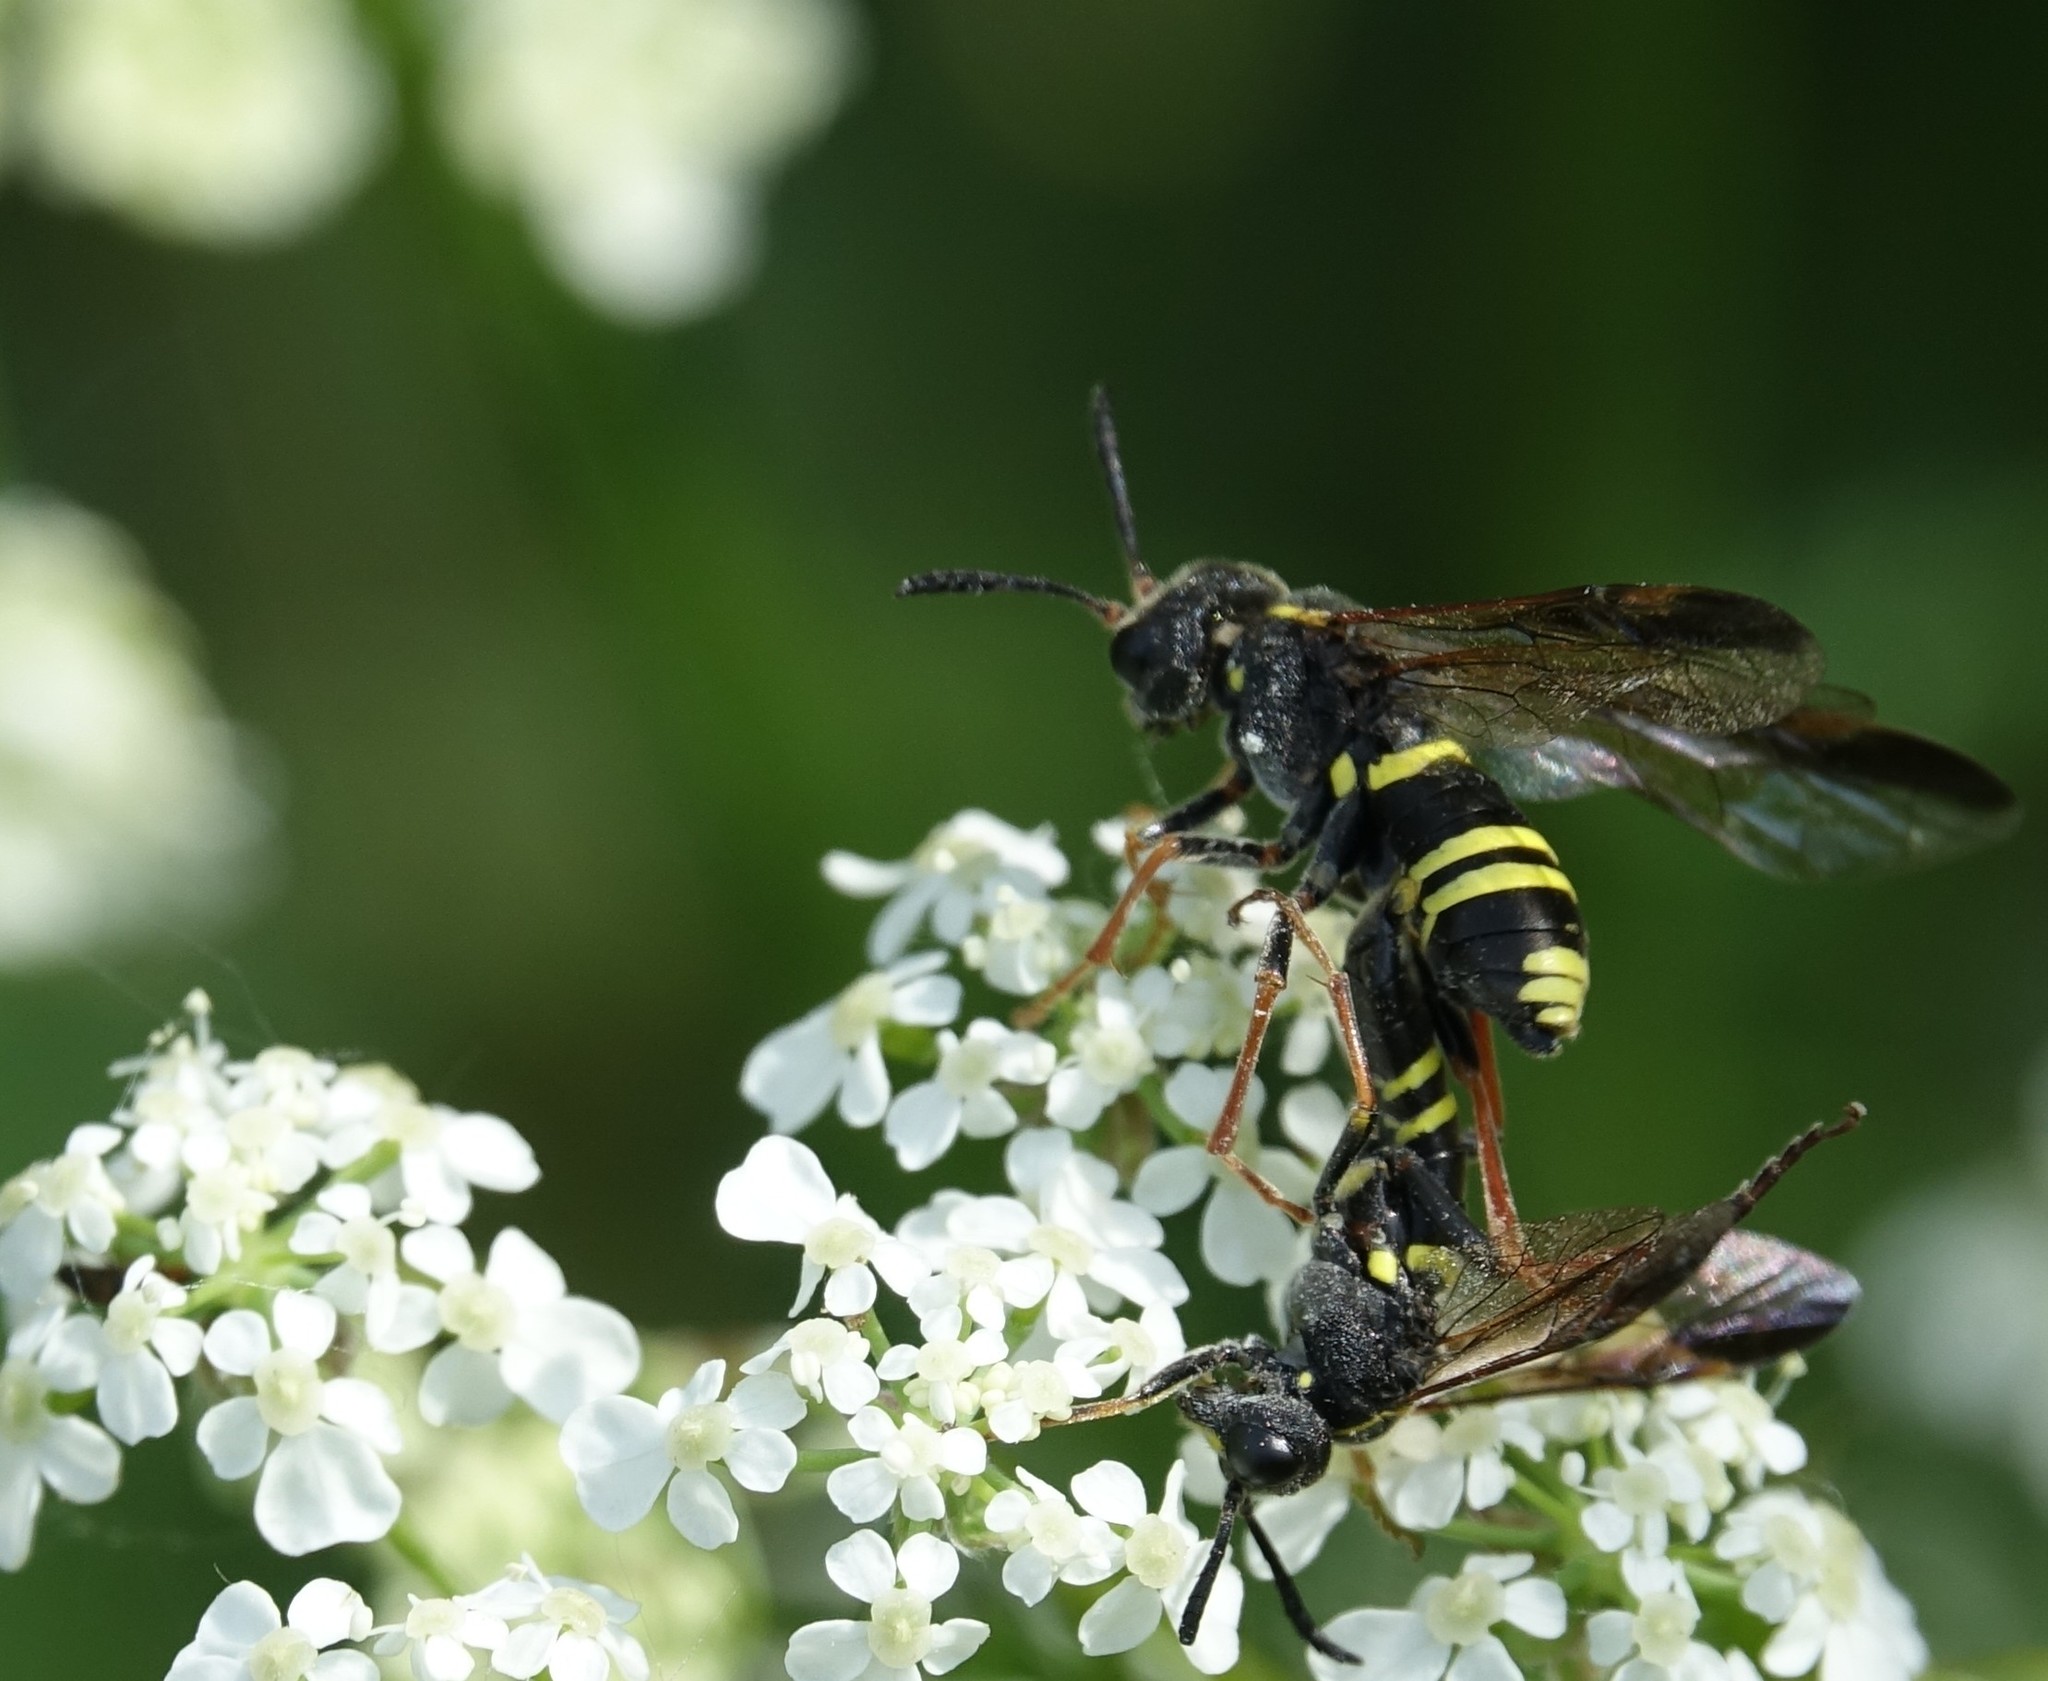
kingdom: Animalia
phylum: Arthropoda
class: Insecta
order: Hymenoptera
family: Tenthredinidae
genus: Tenthredo
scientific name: Tenthredo vespa
